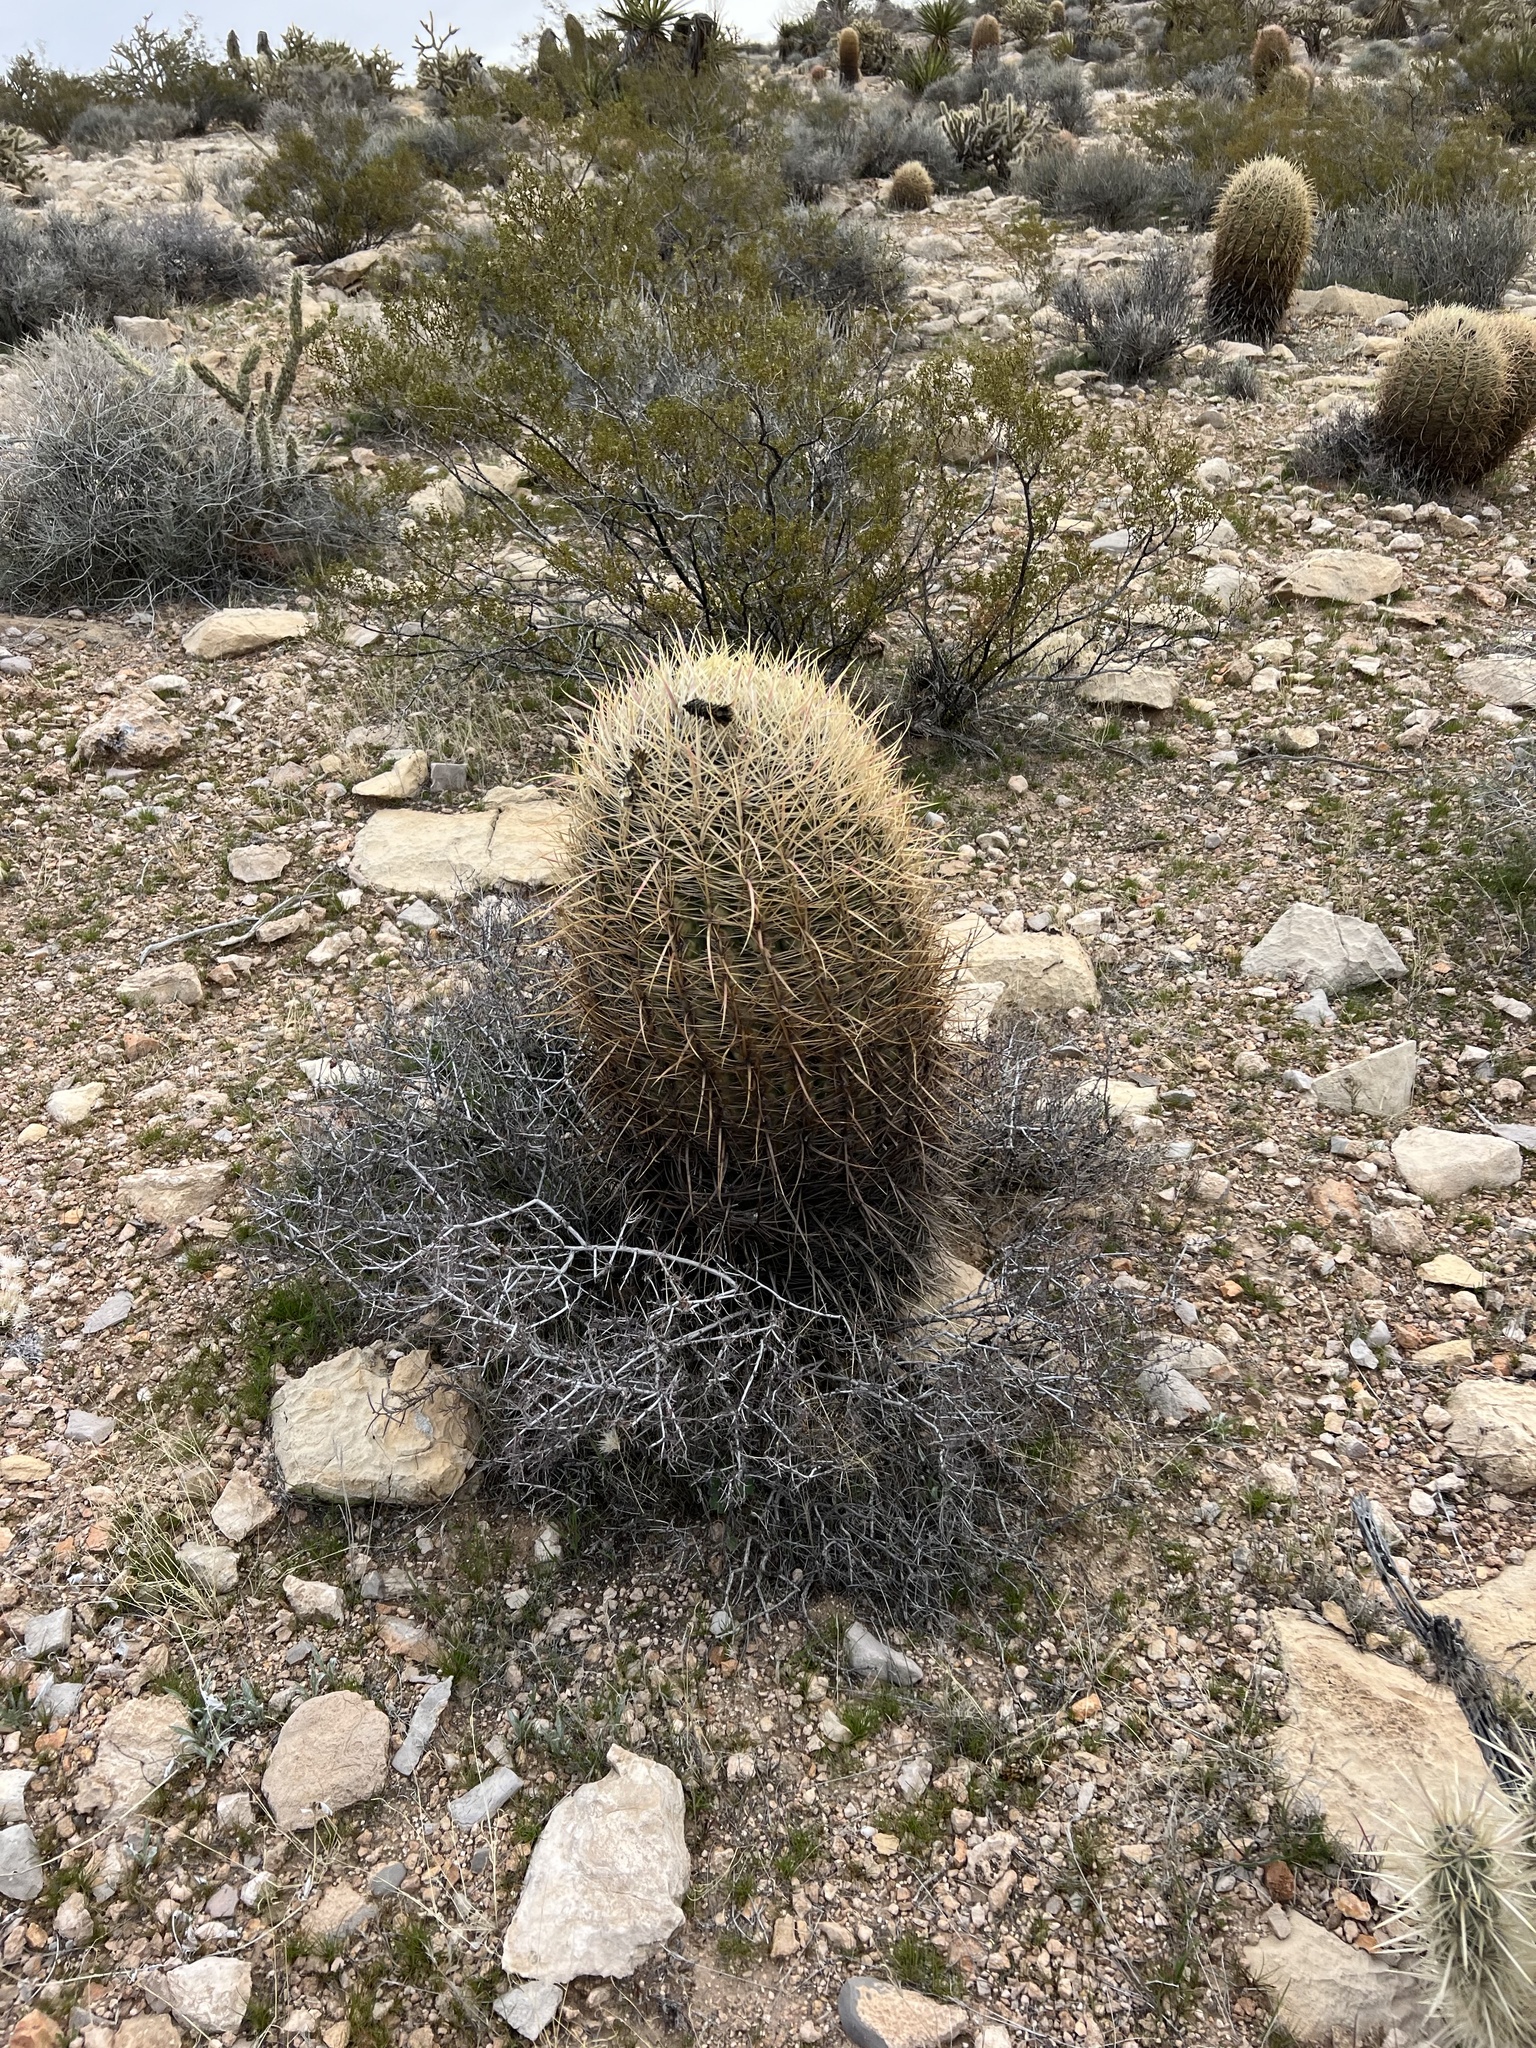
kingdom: Plantae
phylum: Tracheophyta
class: Magnoliopsida
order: Caryophyllales
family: Cactaceae
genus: Ferocactus
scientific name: Ferocactus cylindraceus
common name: California barrel cactus
